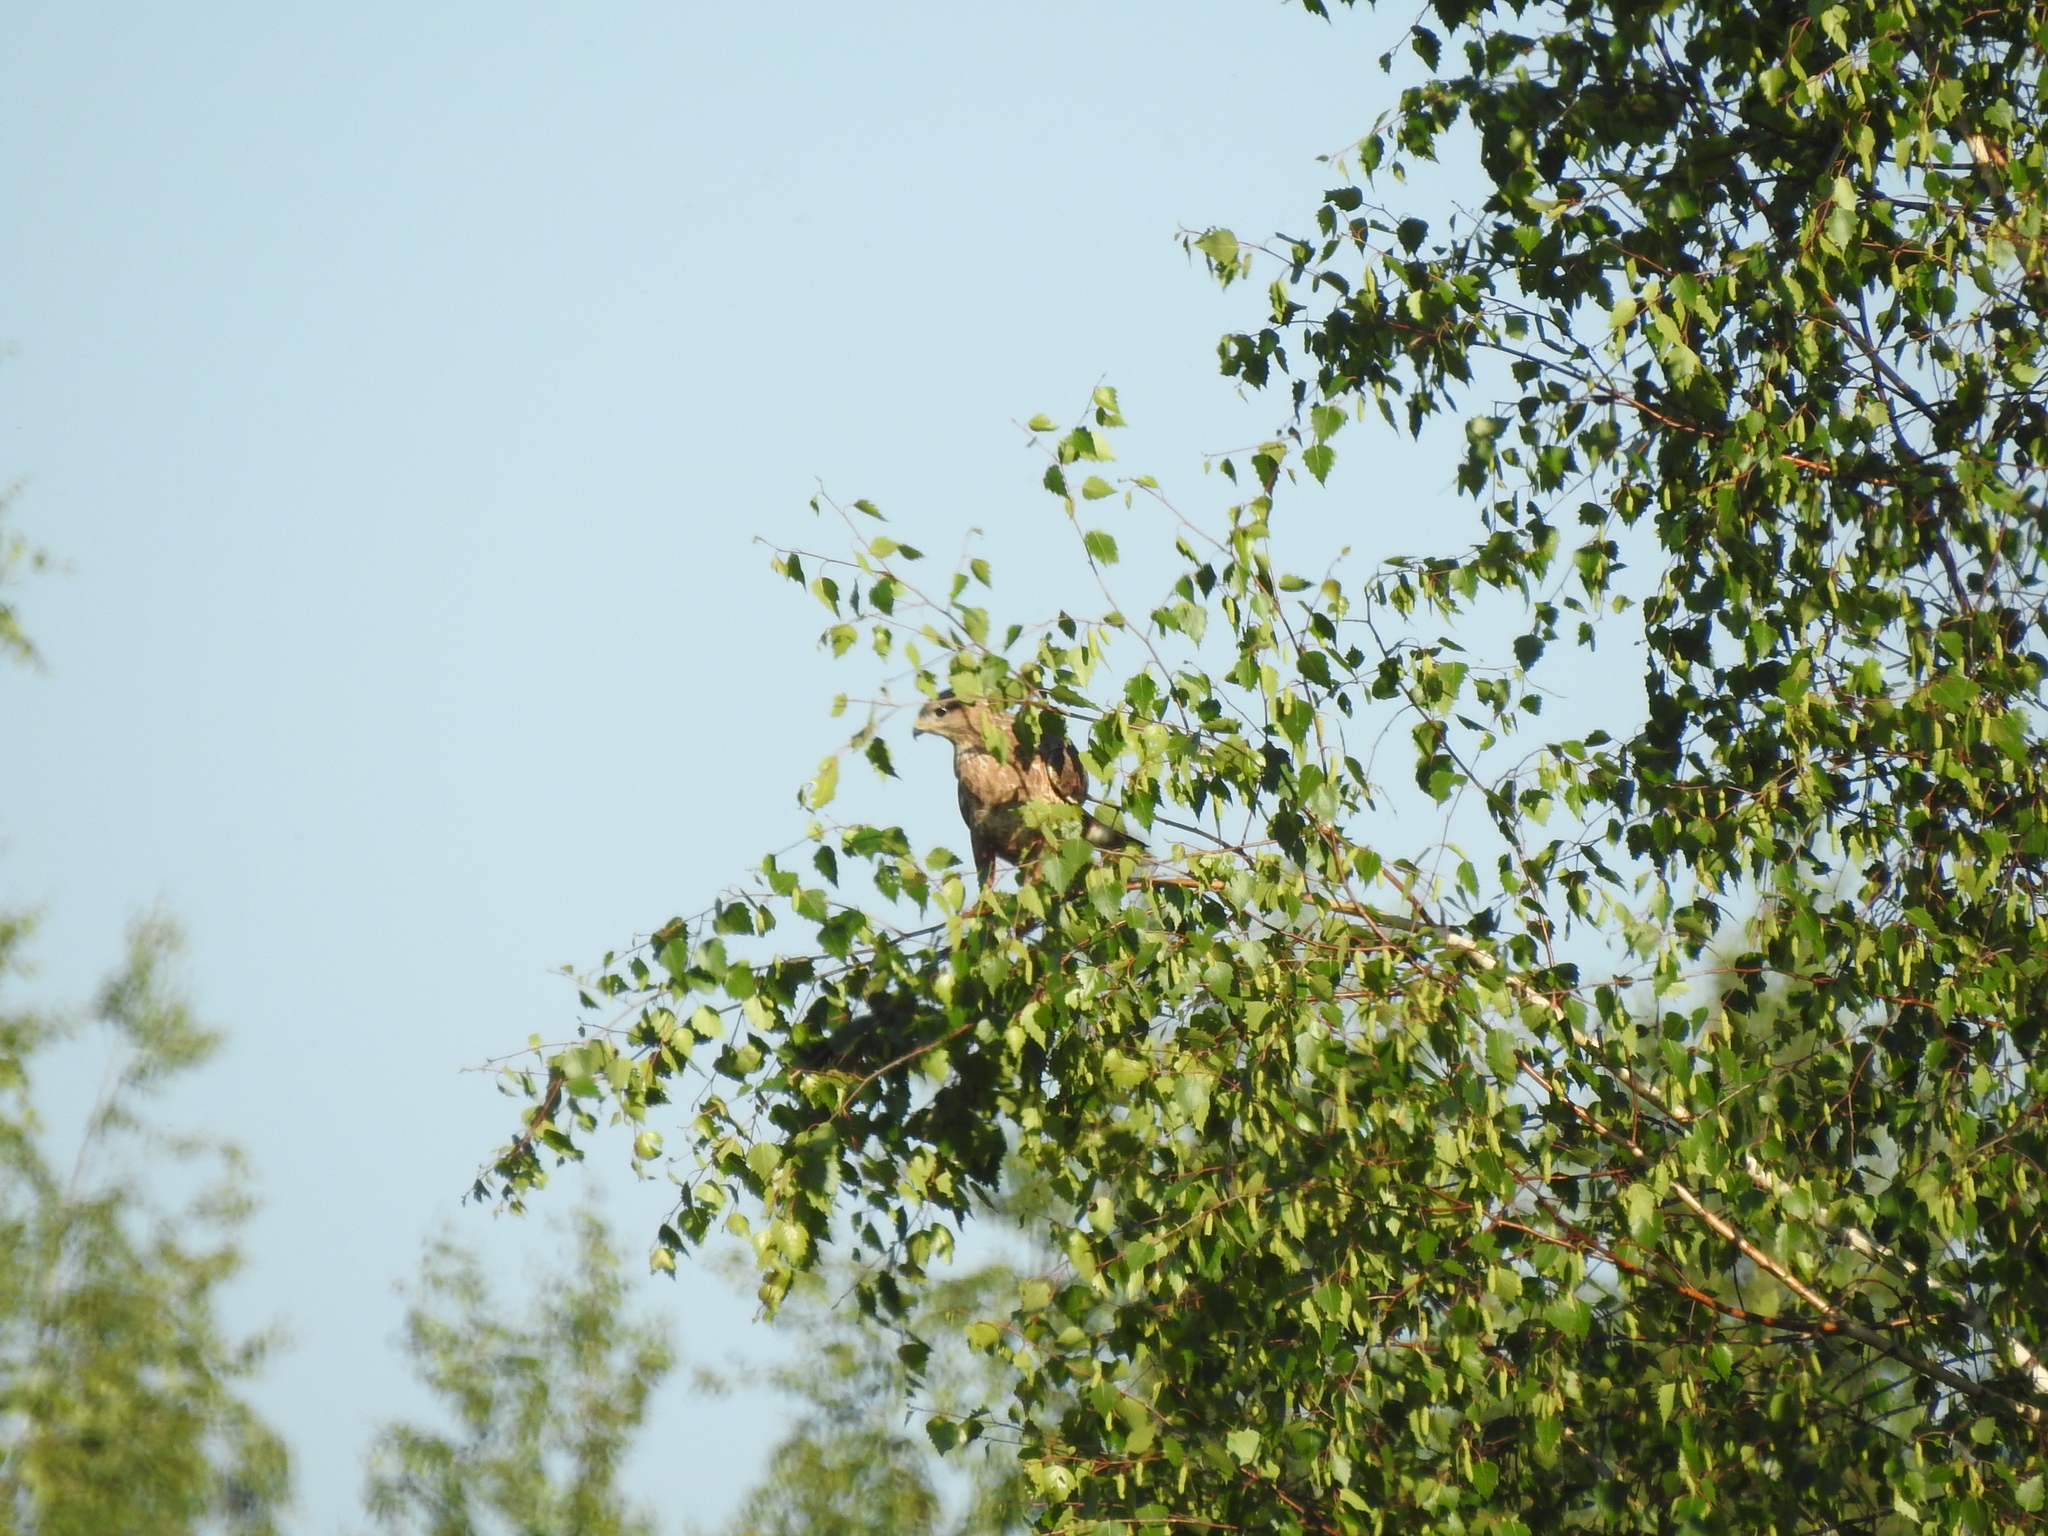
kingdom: Animalia
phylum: Chordata
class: Aves
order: Accipitriformes
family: Accipitridae
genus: Buteo
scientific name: Buteo buteo
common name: Common buzzard
